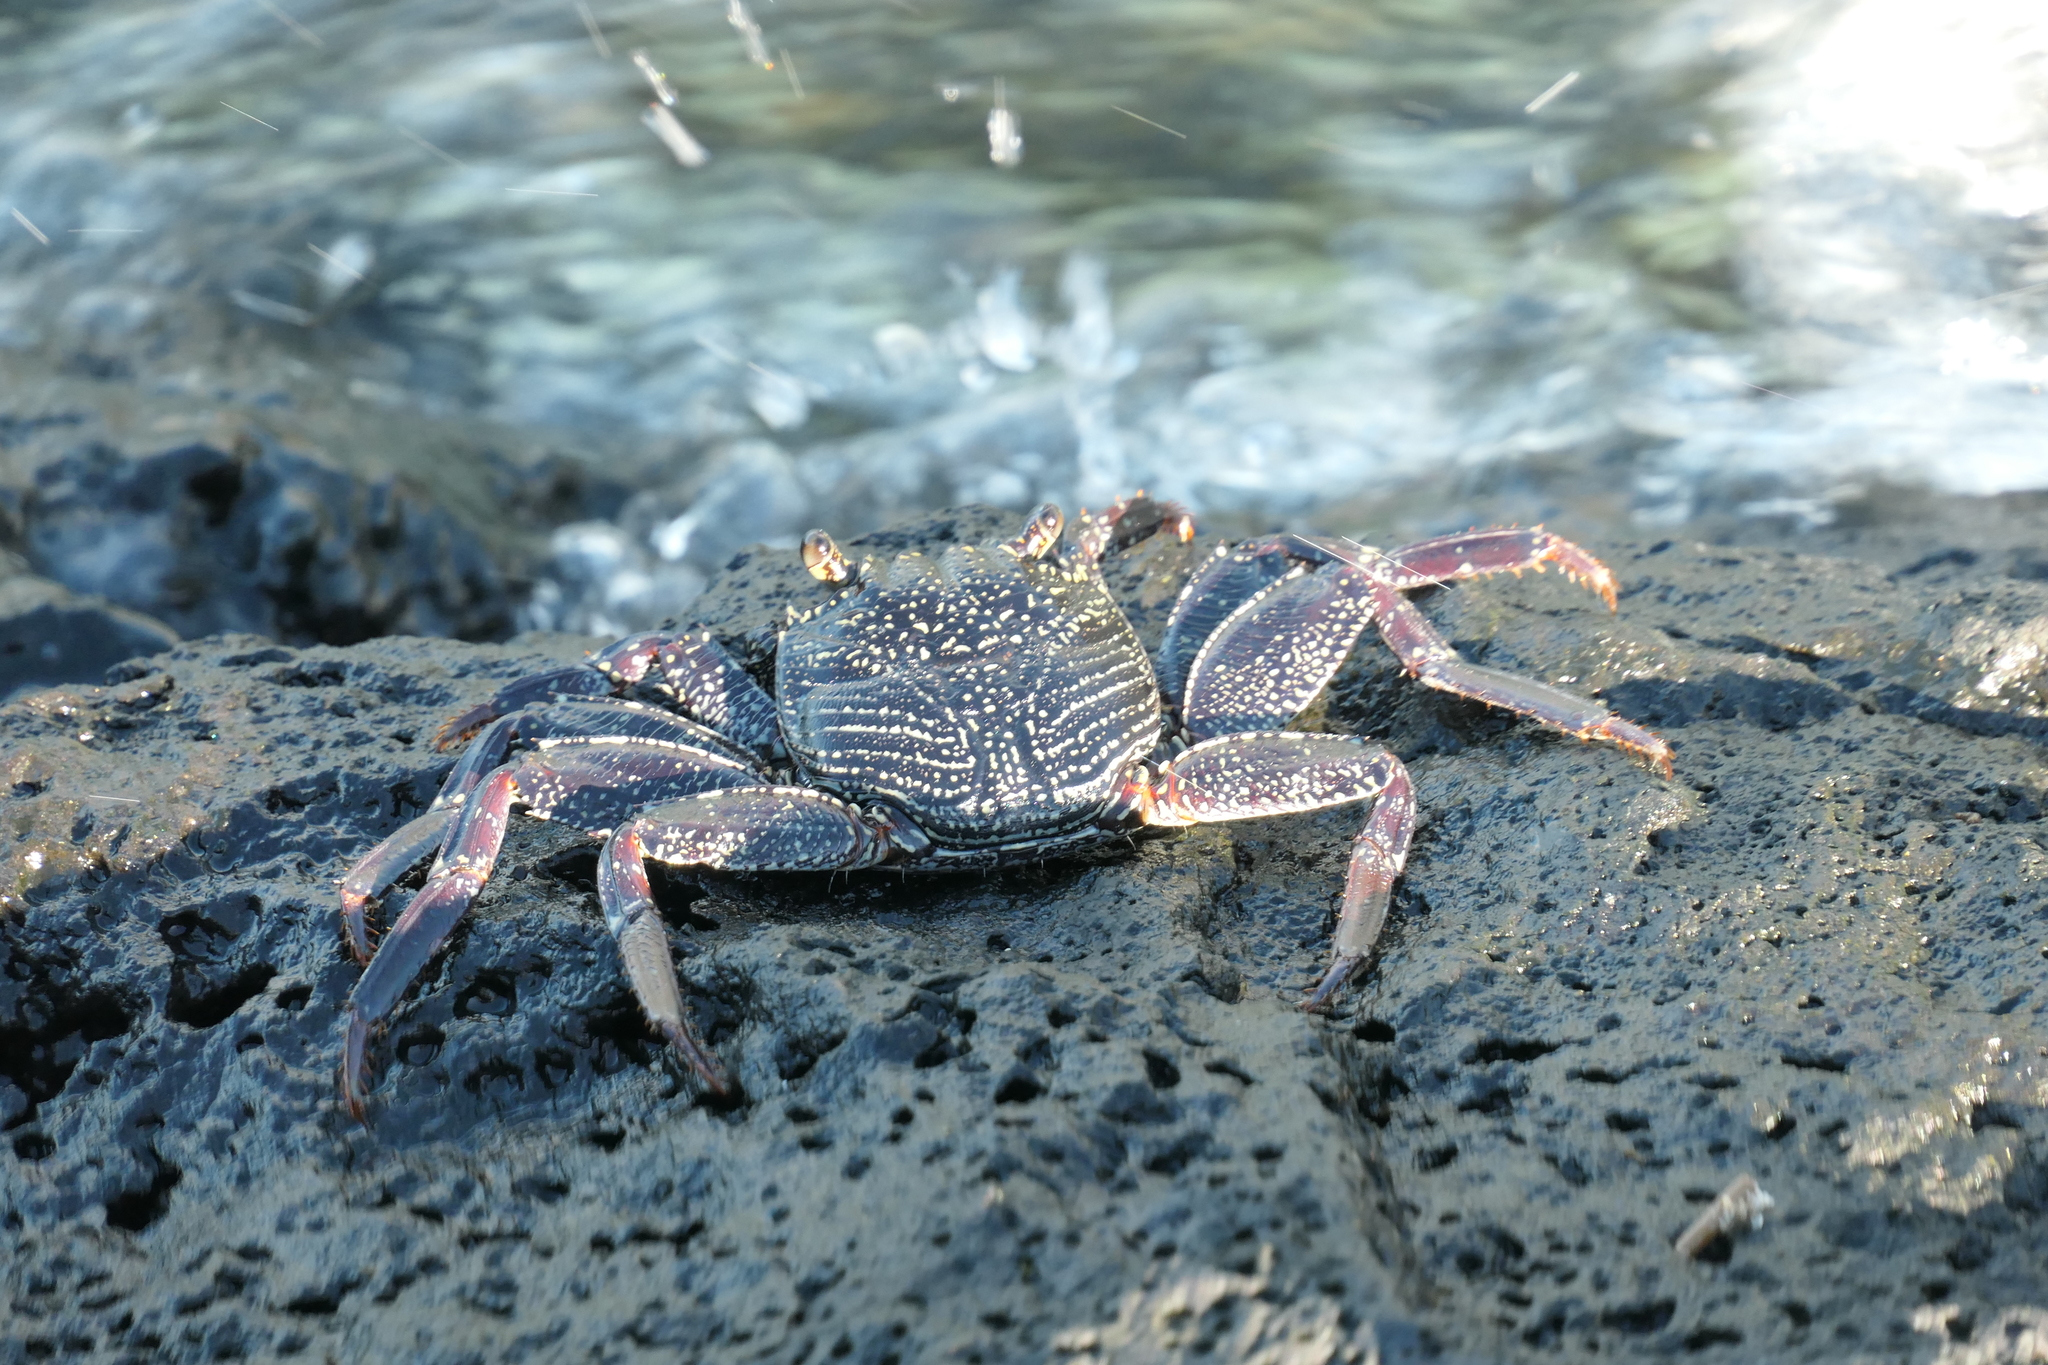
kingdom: Animalia
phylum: Arthropoda
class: Malacostraca
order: Decapoda
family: Grapsidae
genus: Grapsus
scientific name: Grapsus tenuicrustatus
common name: Natal lightfoot crab
